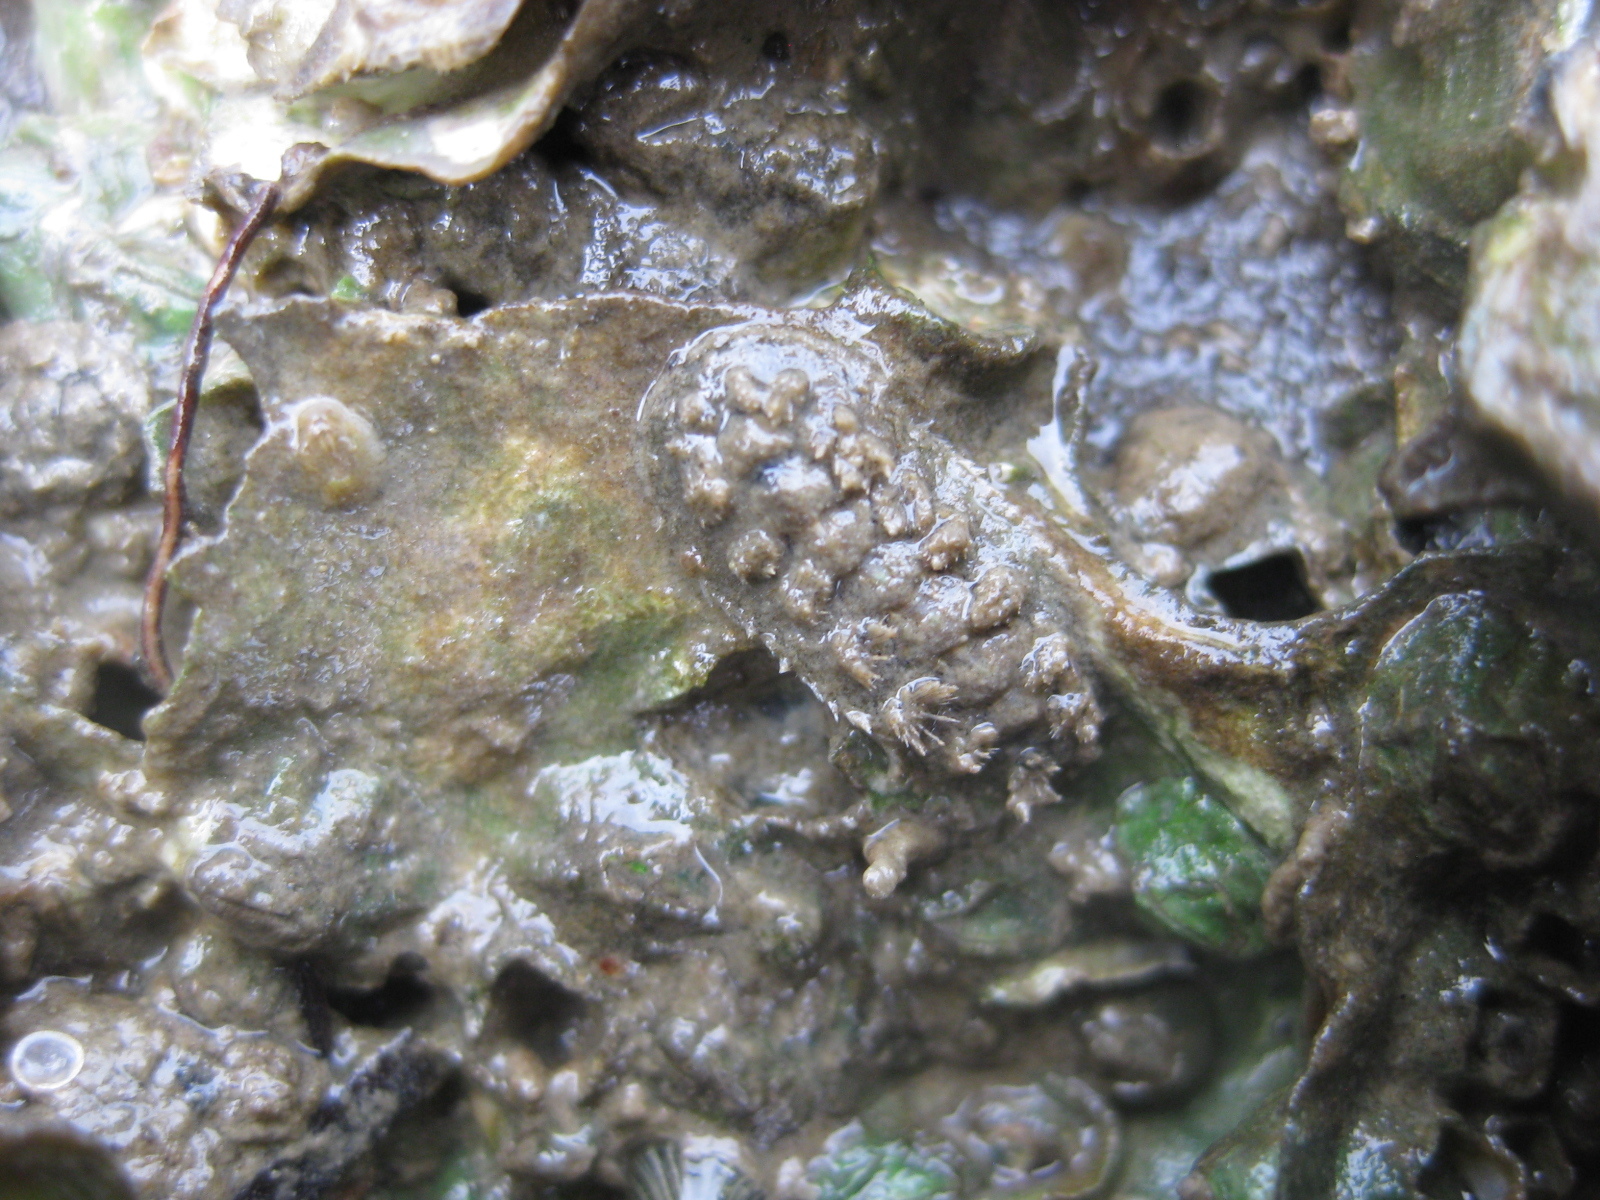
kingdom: Animalia
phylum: Mollusca
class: Polyplacophora
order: Chitonida
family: Acanthochitonidae
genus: Acanthochitona
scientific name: Acanthochitona zelandica
